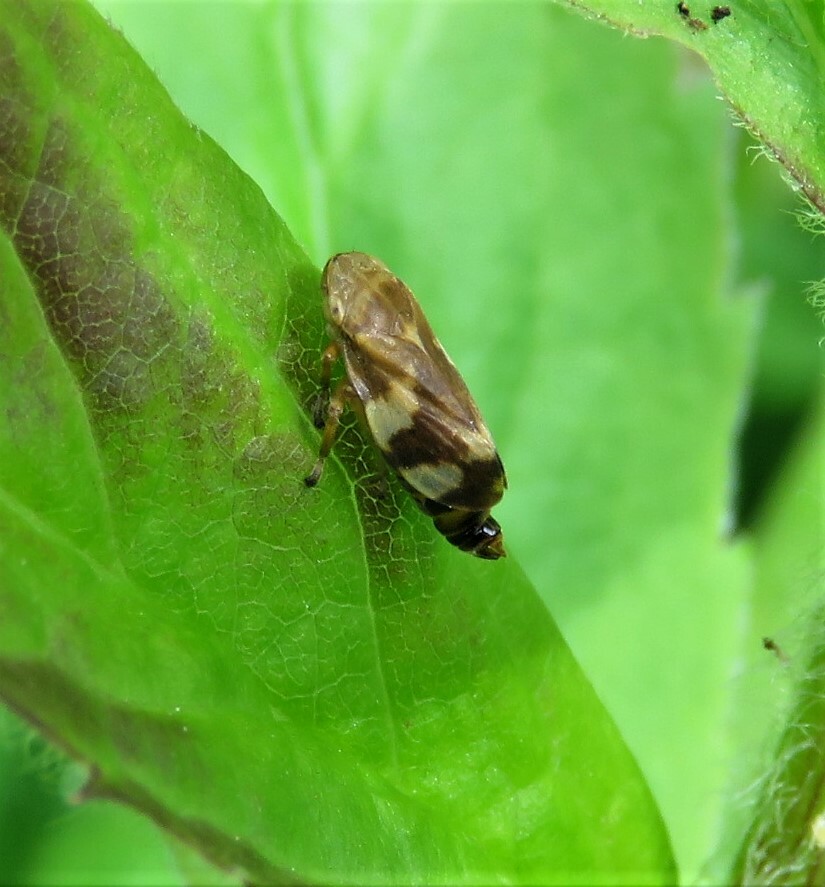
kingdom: Animalia
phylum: Arthropoda
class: Insecta
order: Hemiptera
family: Aphrophoridae
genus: Philaenus
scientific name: Philaenus spumarius
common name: Meadow spittlebug
